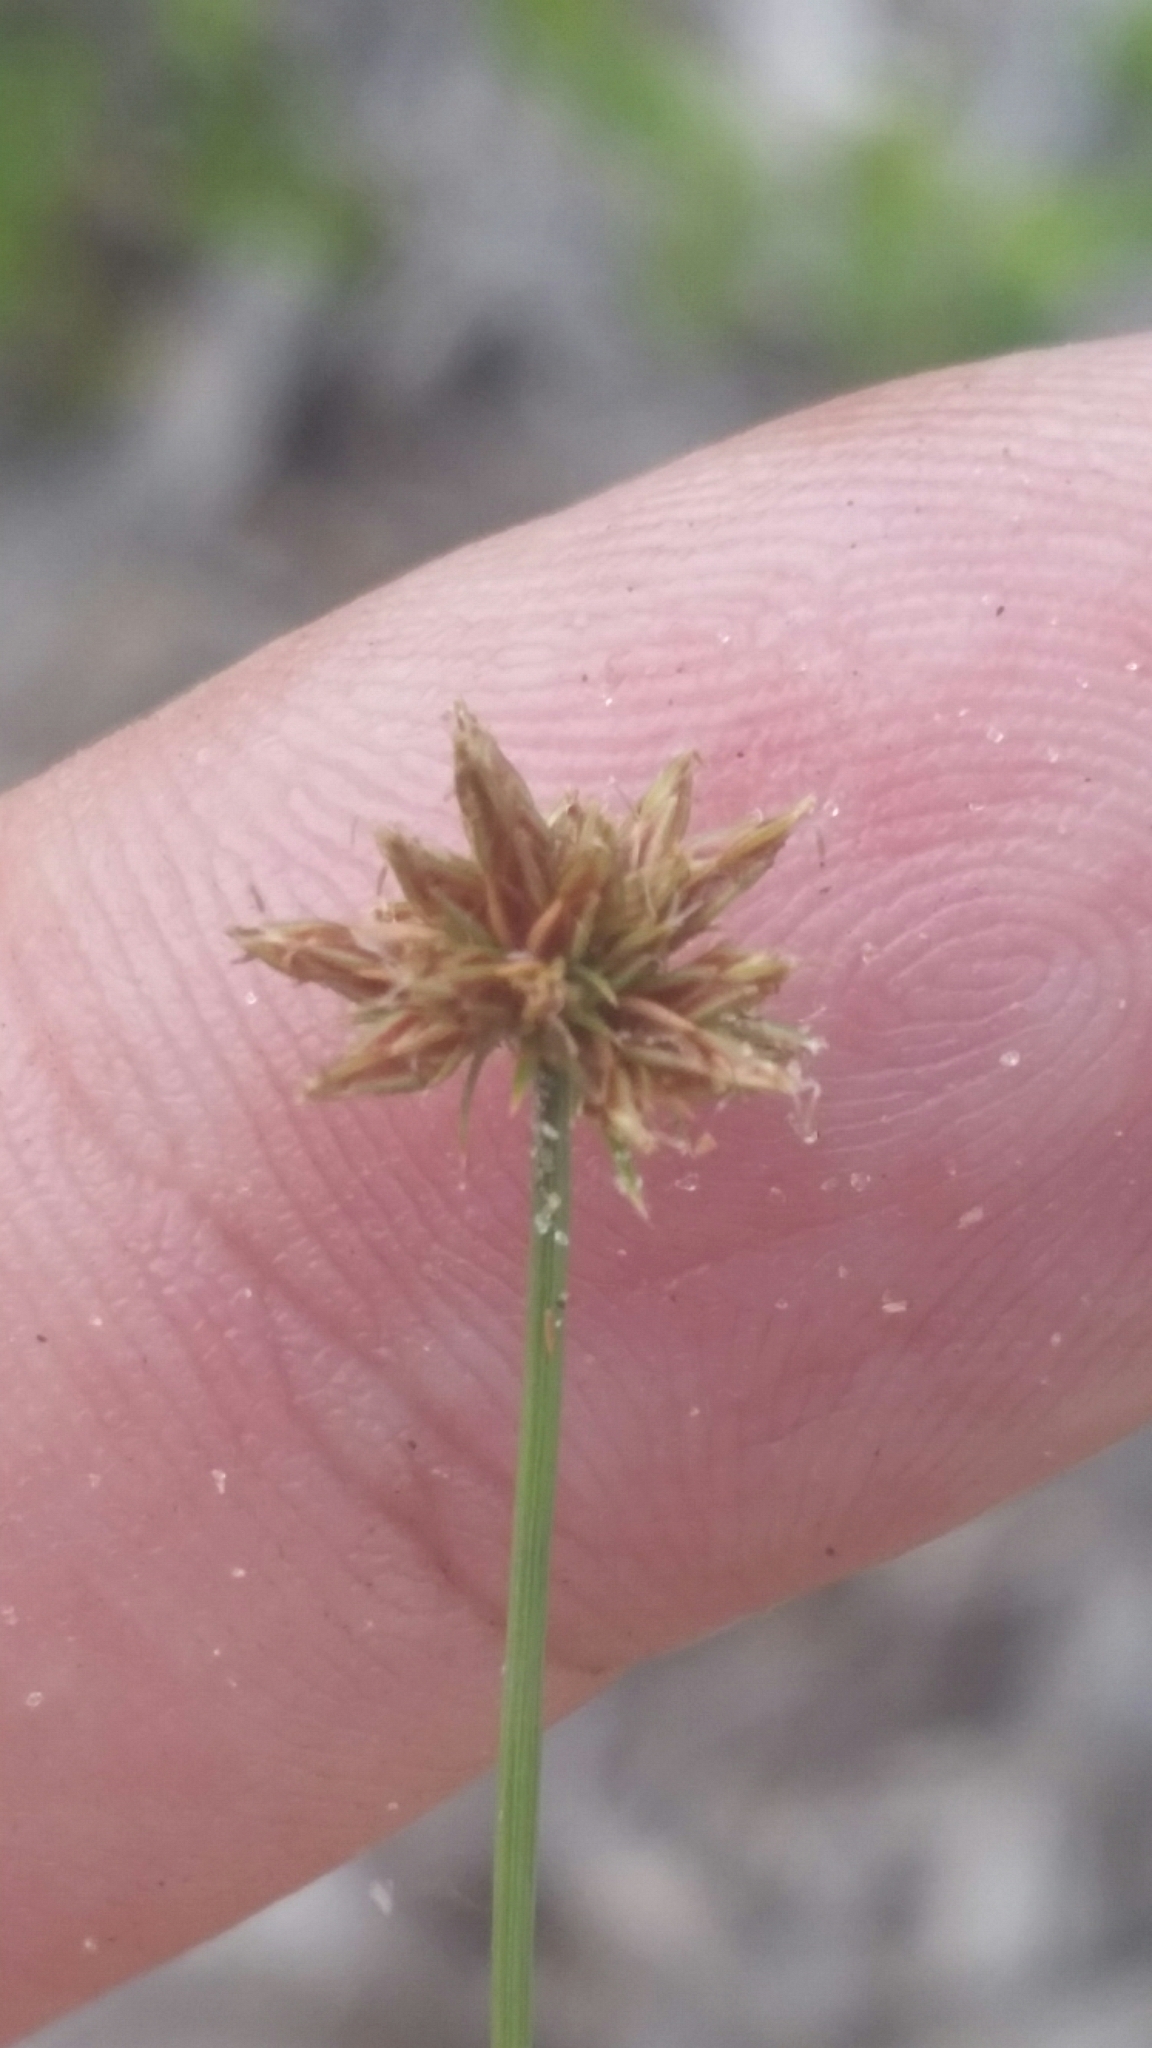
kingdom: Plantae
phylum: Tracheophyta
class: Liliopsida
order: Poales
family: Cyperaceae
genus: Bulbostylis
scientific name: Bulbostylis barbata
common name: Watergrass
